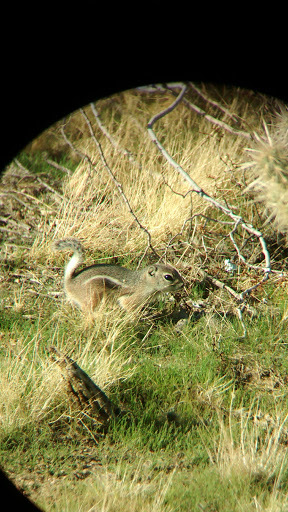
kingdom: Animalia
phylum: Chordata
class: Mammalia
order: Rodentia
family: Sciuridae
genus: Ammospermophilus
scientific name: Ammospermophilus leucurus
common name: White-tailed antelope squirrel
